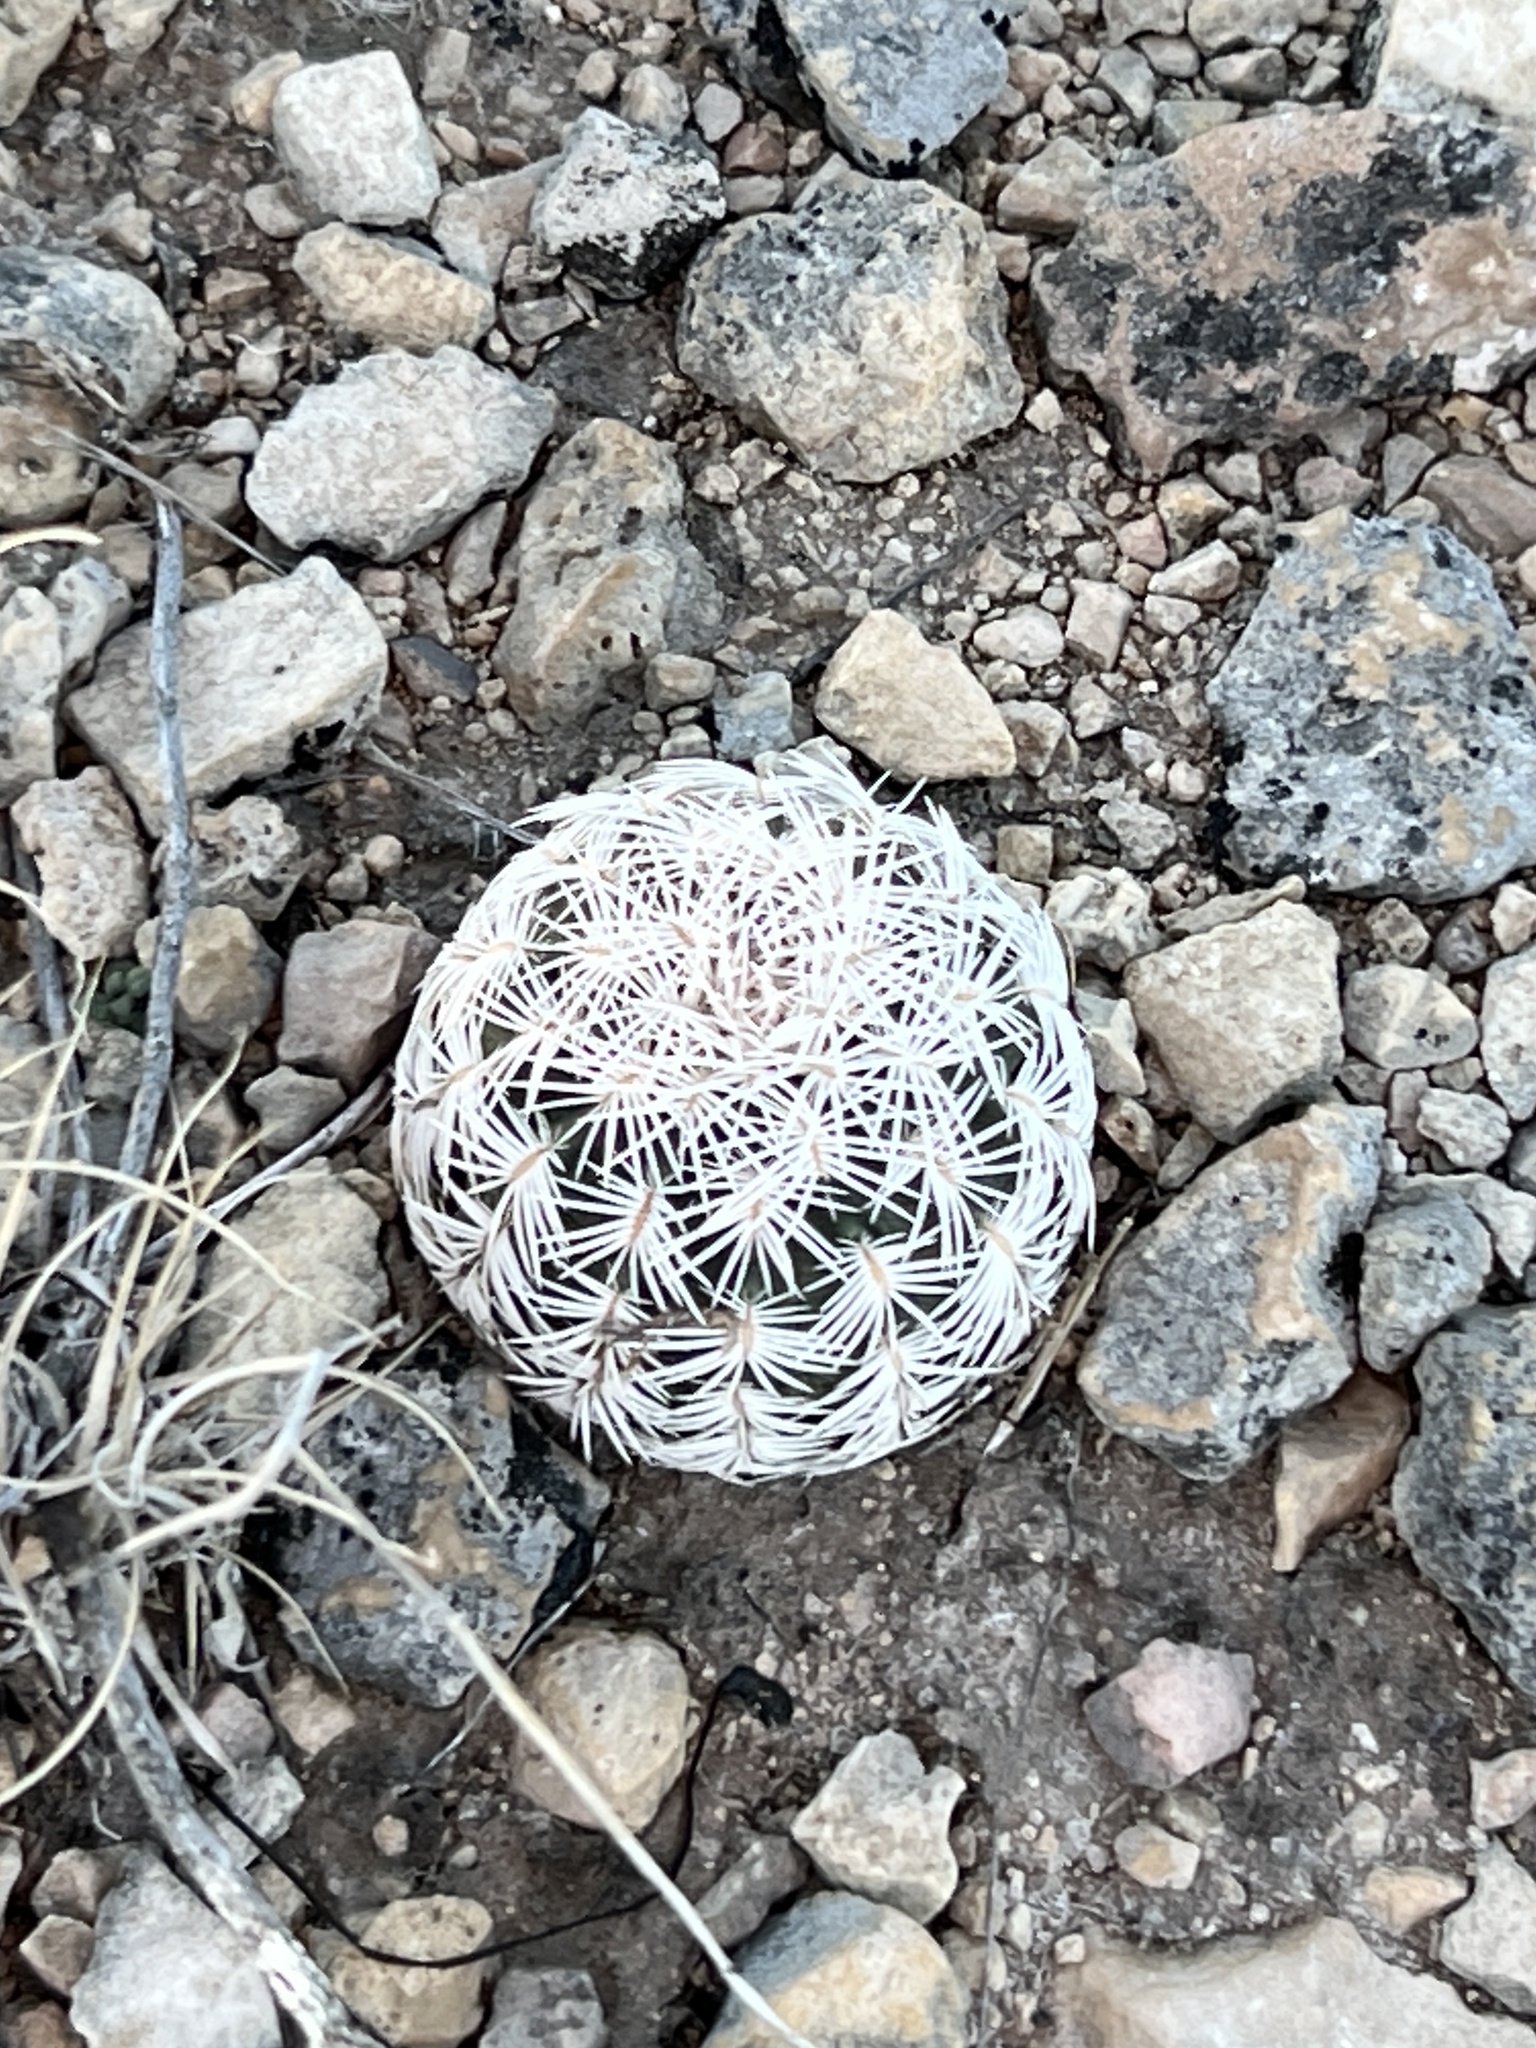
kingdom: Plantae
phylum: Tracheophyta
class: Magnoliopsida
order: Caryophyllales
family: Cactaceae
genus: Echinocereus
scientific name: Echinocereus reichenbachii
